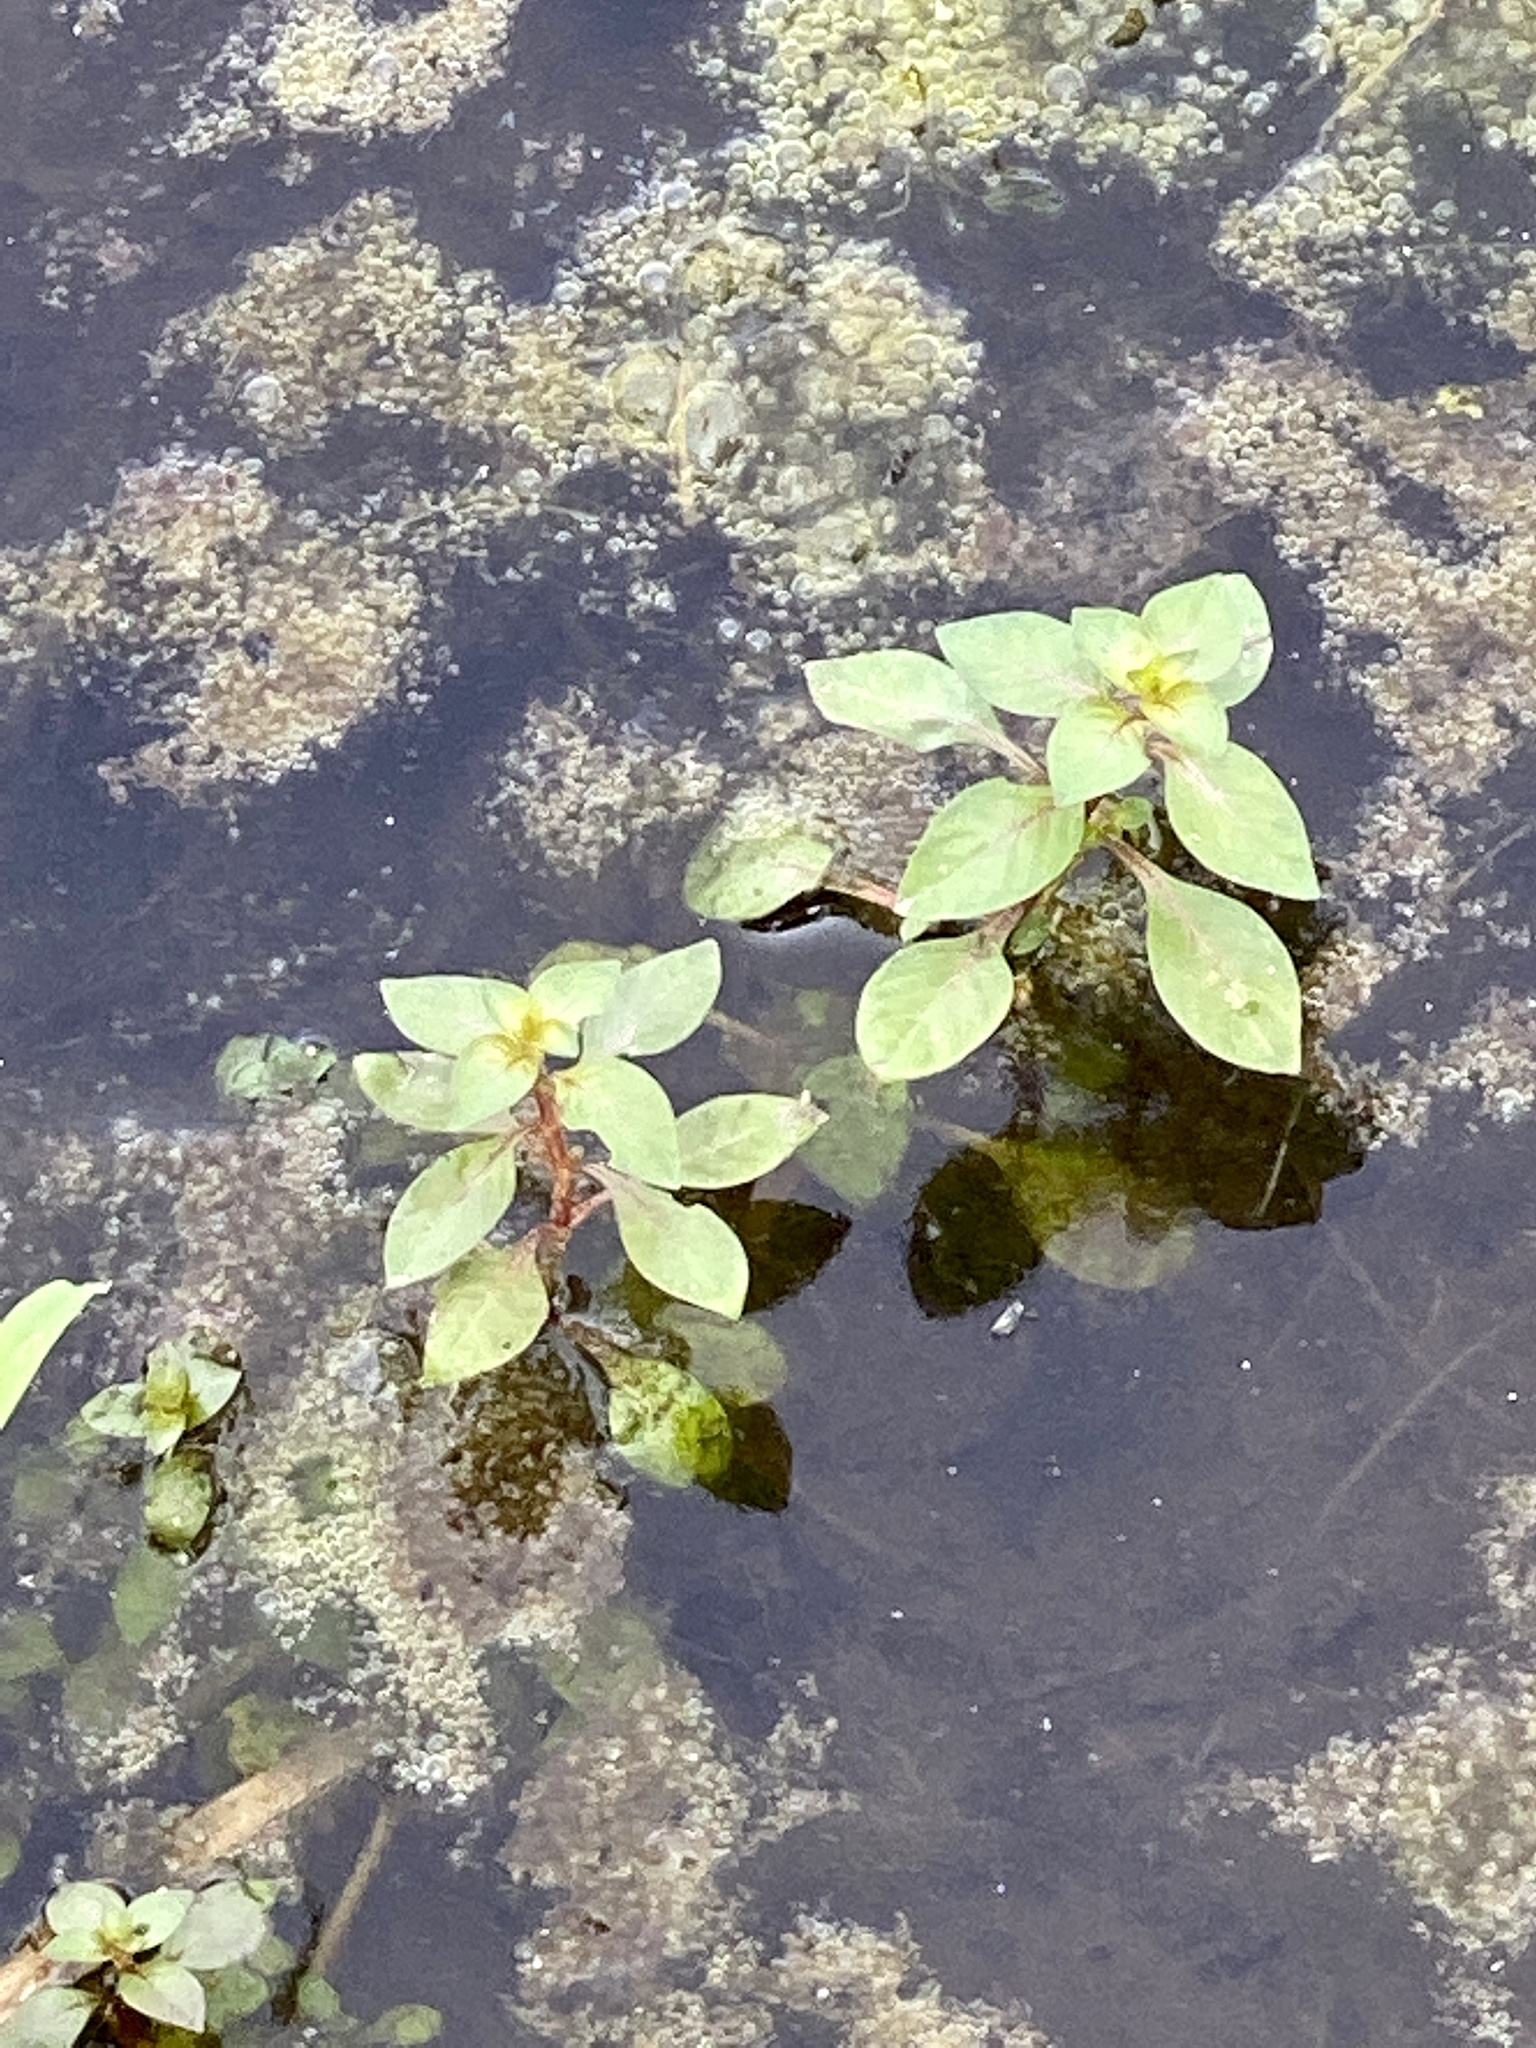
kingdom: Plantae
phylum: Tracheophyta
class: Magnoliopsida
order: Myrtales
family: Onagraceae
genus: Ludwigia
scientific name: Ludwigia palustris
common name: Hampshire-purslane
